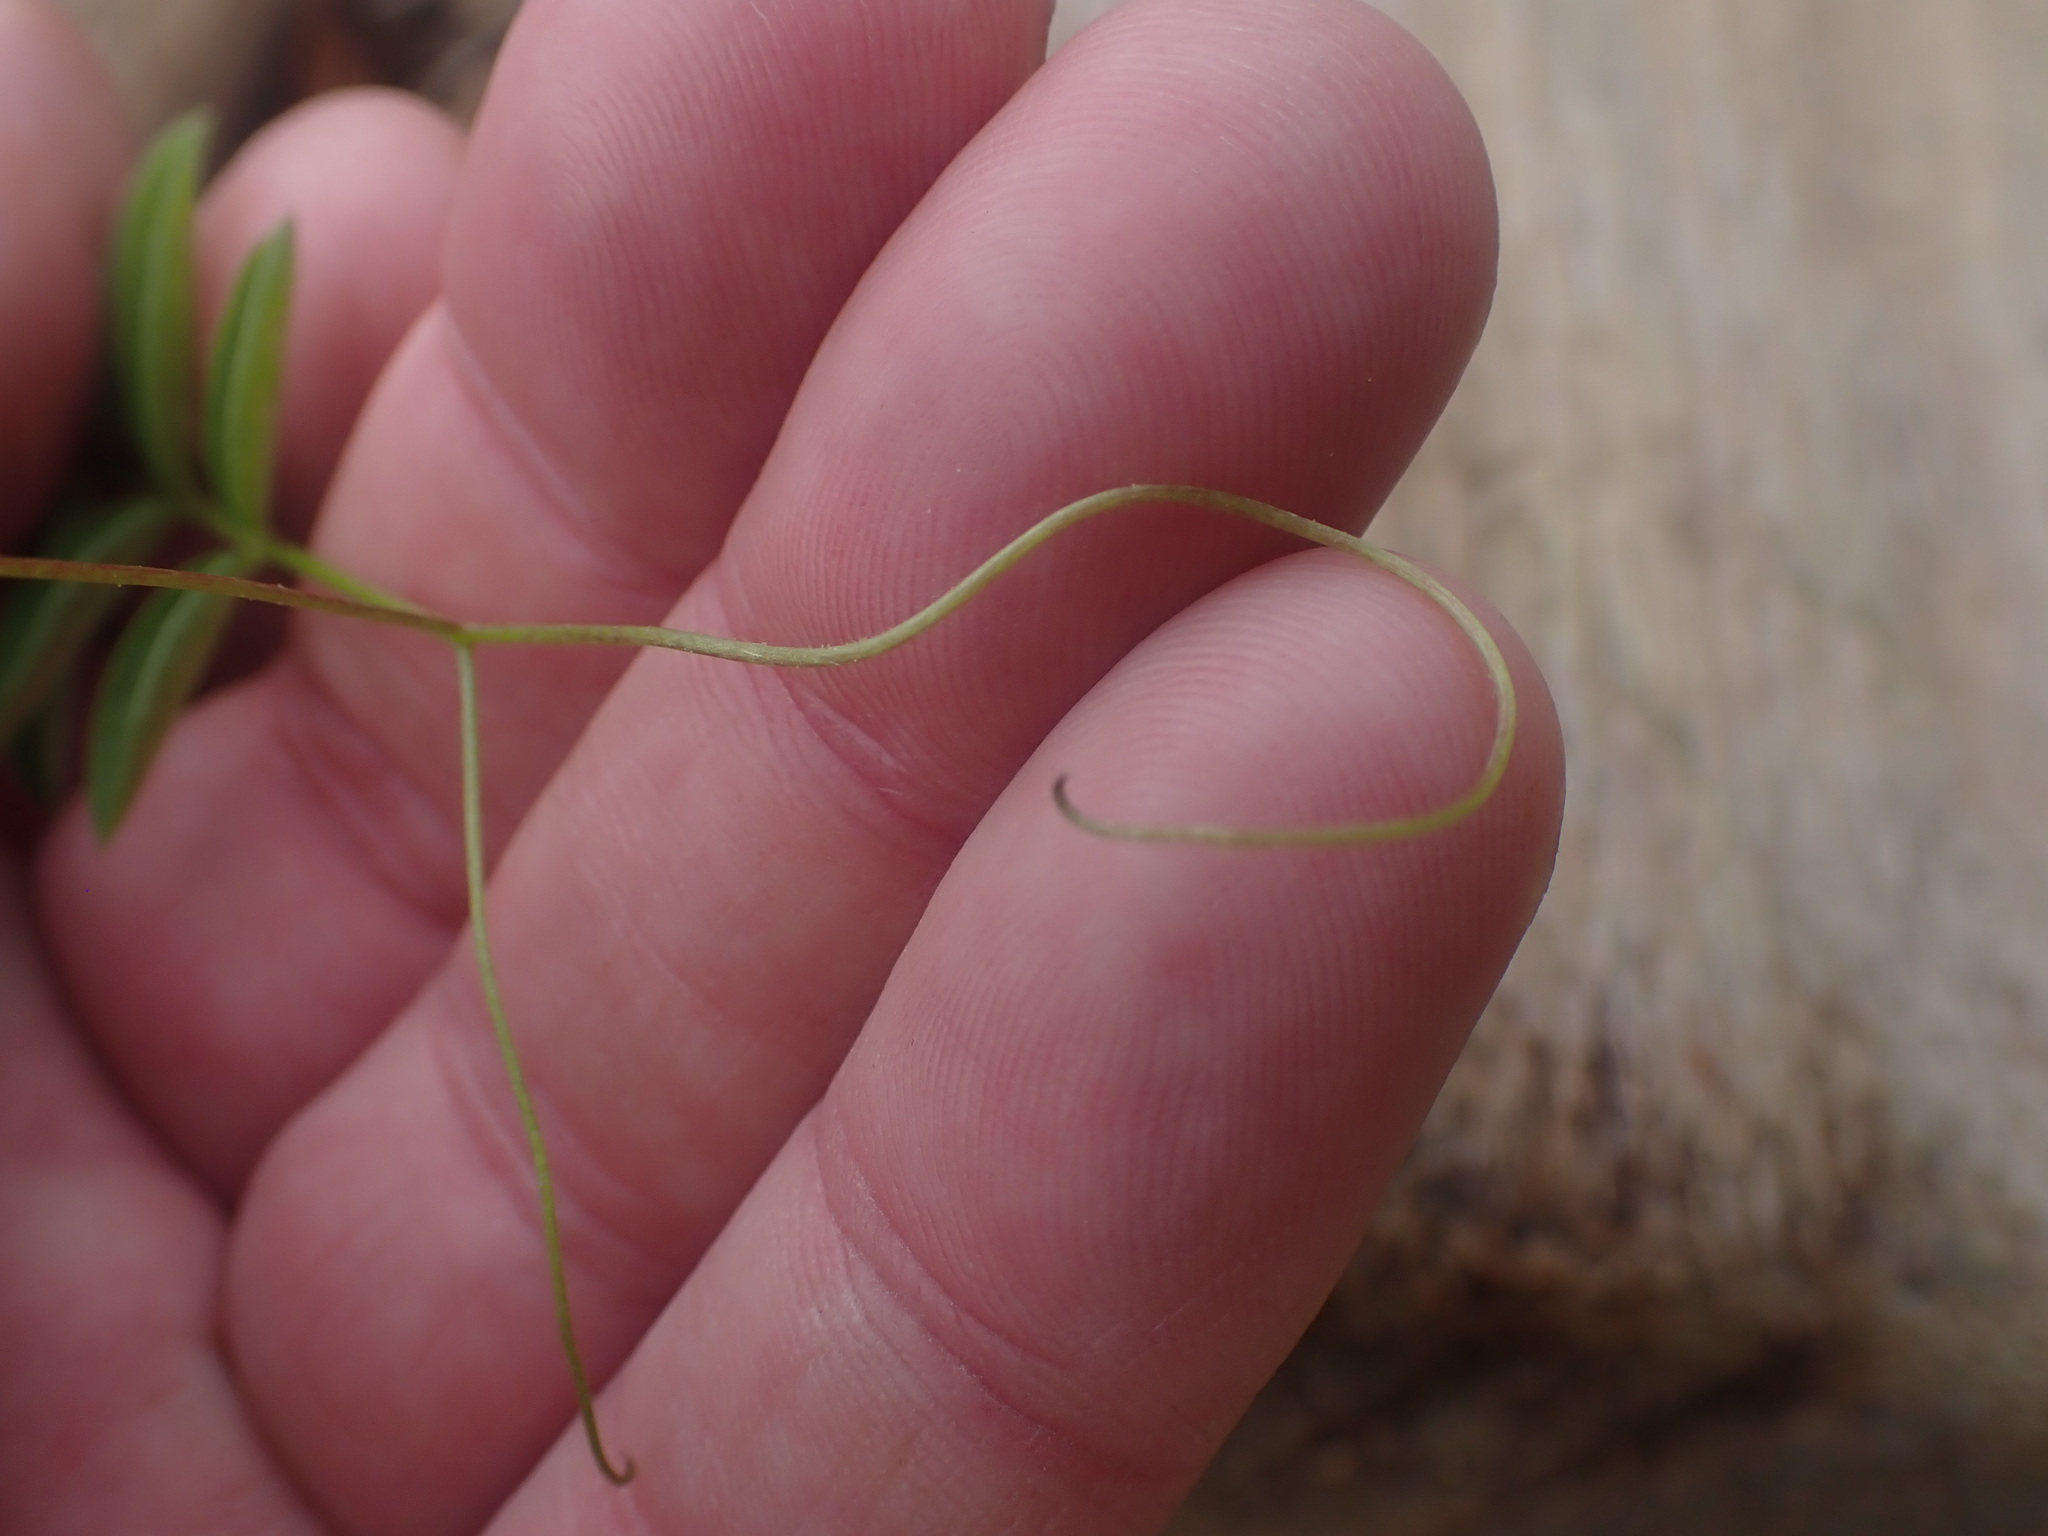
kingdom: Plantae
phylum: Tracheophyta
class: Magnoliopsida
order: Fabales
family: Fabaceae
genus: Vicia
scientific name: Vicia
